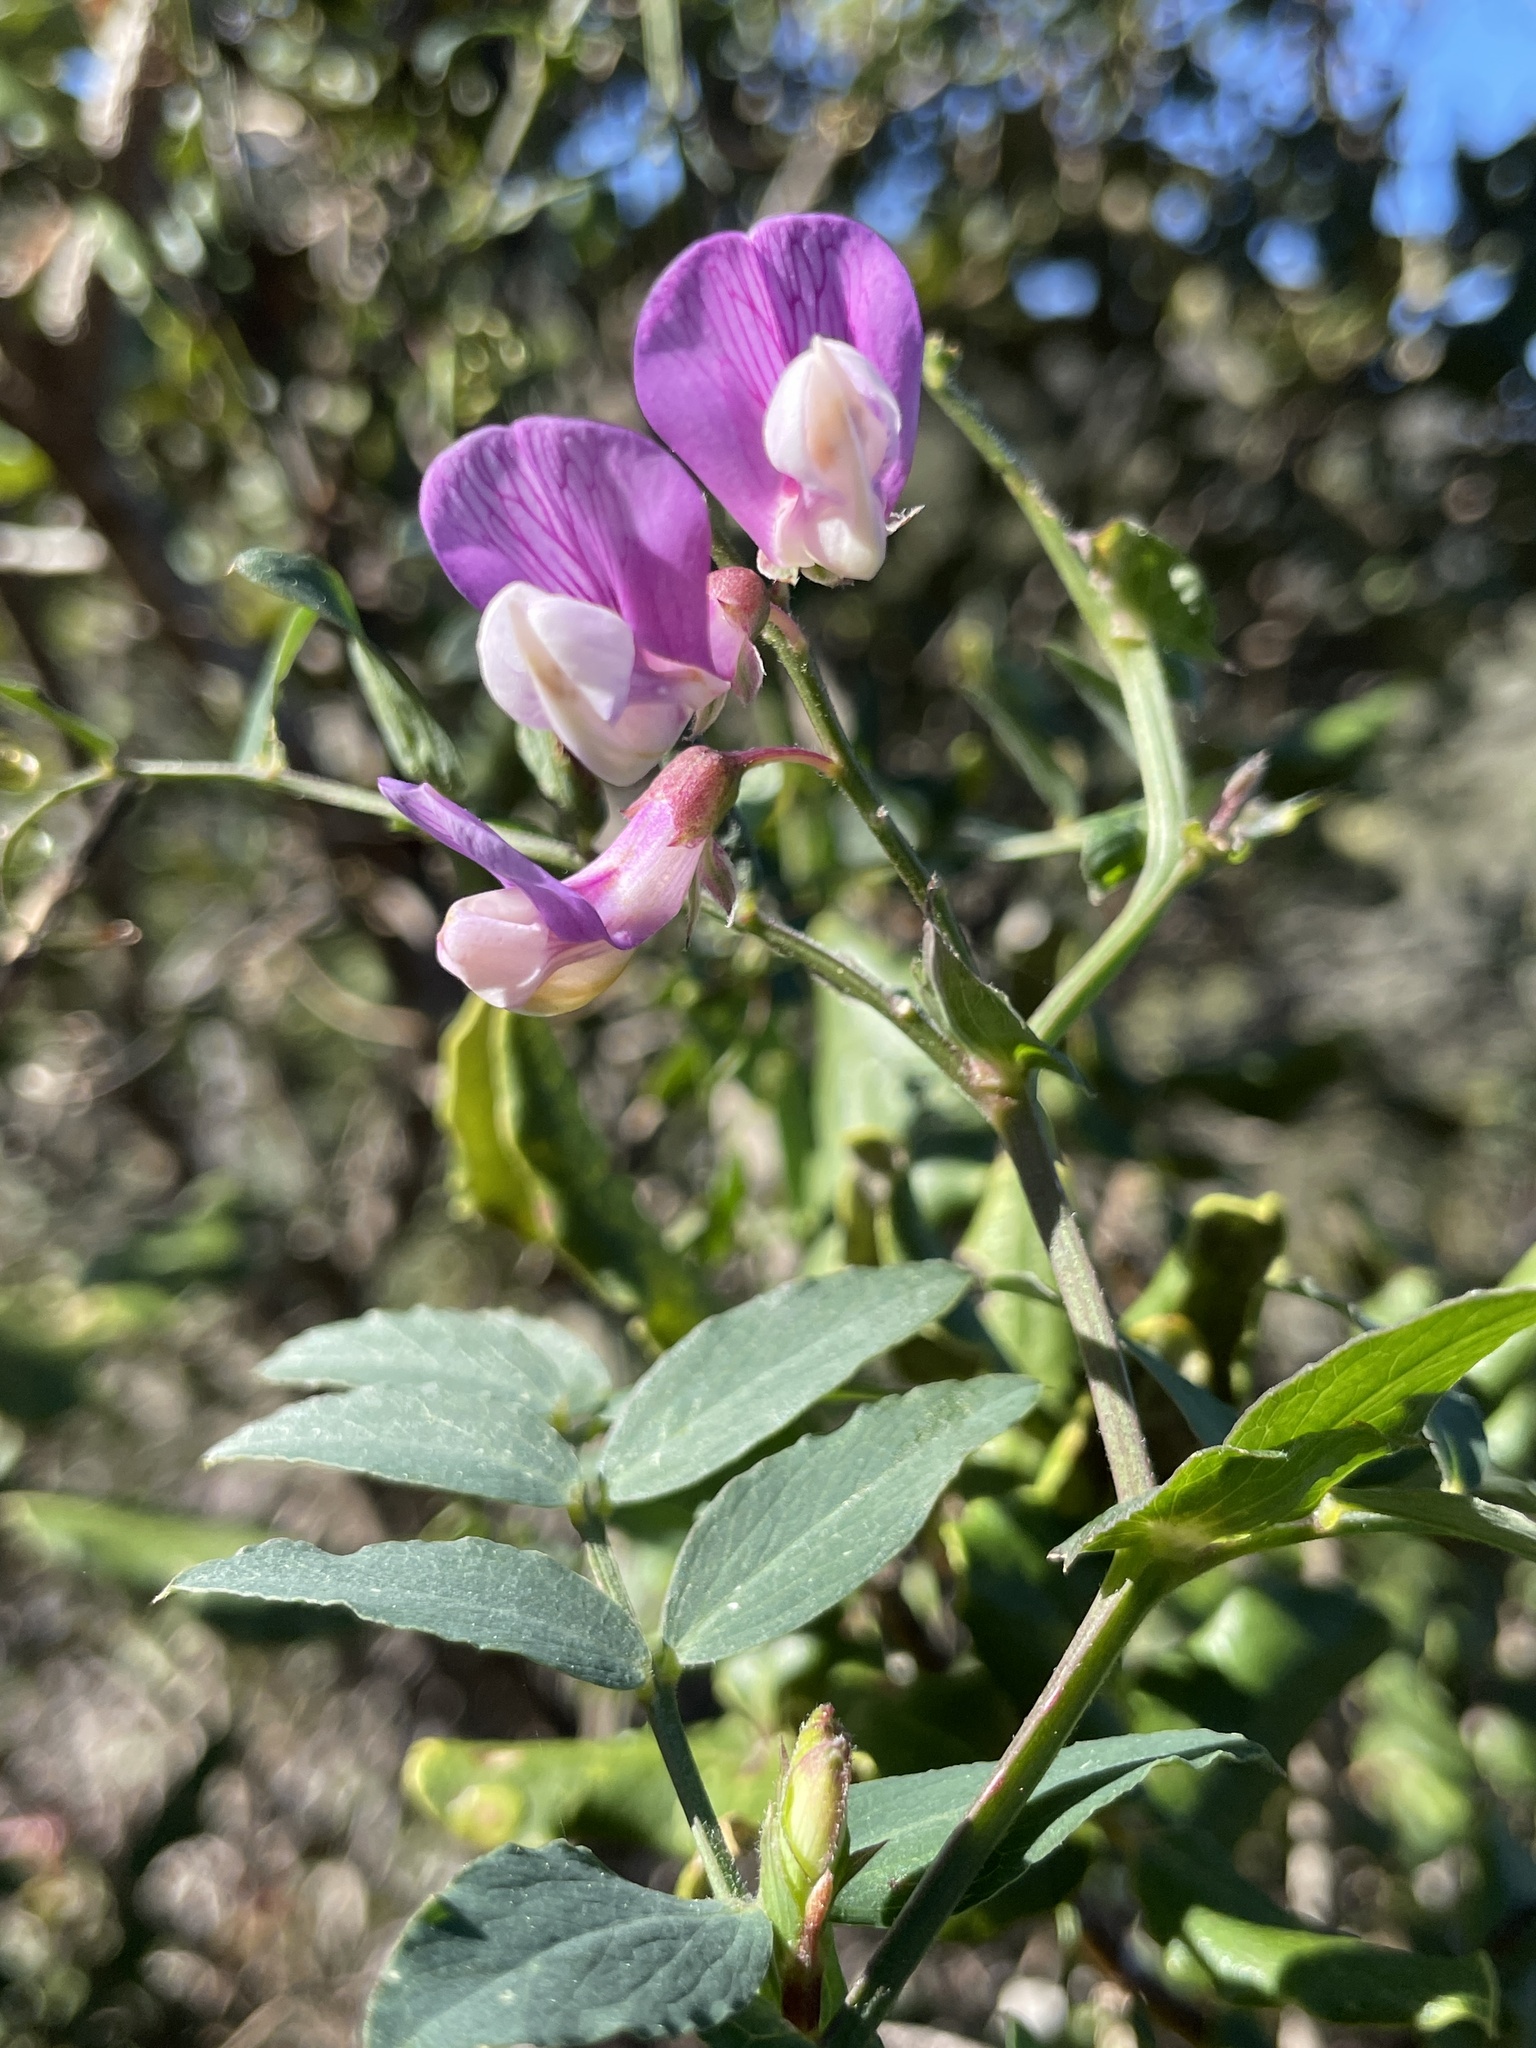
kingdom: Plantae
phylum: Tracheophyta
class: Magnoliopsida
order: Fabales
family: Fabaceae
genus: Lathyrus
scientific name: Lathyrus vestitus
